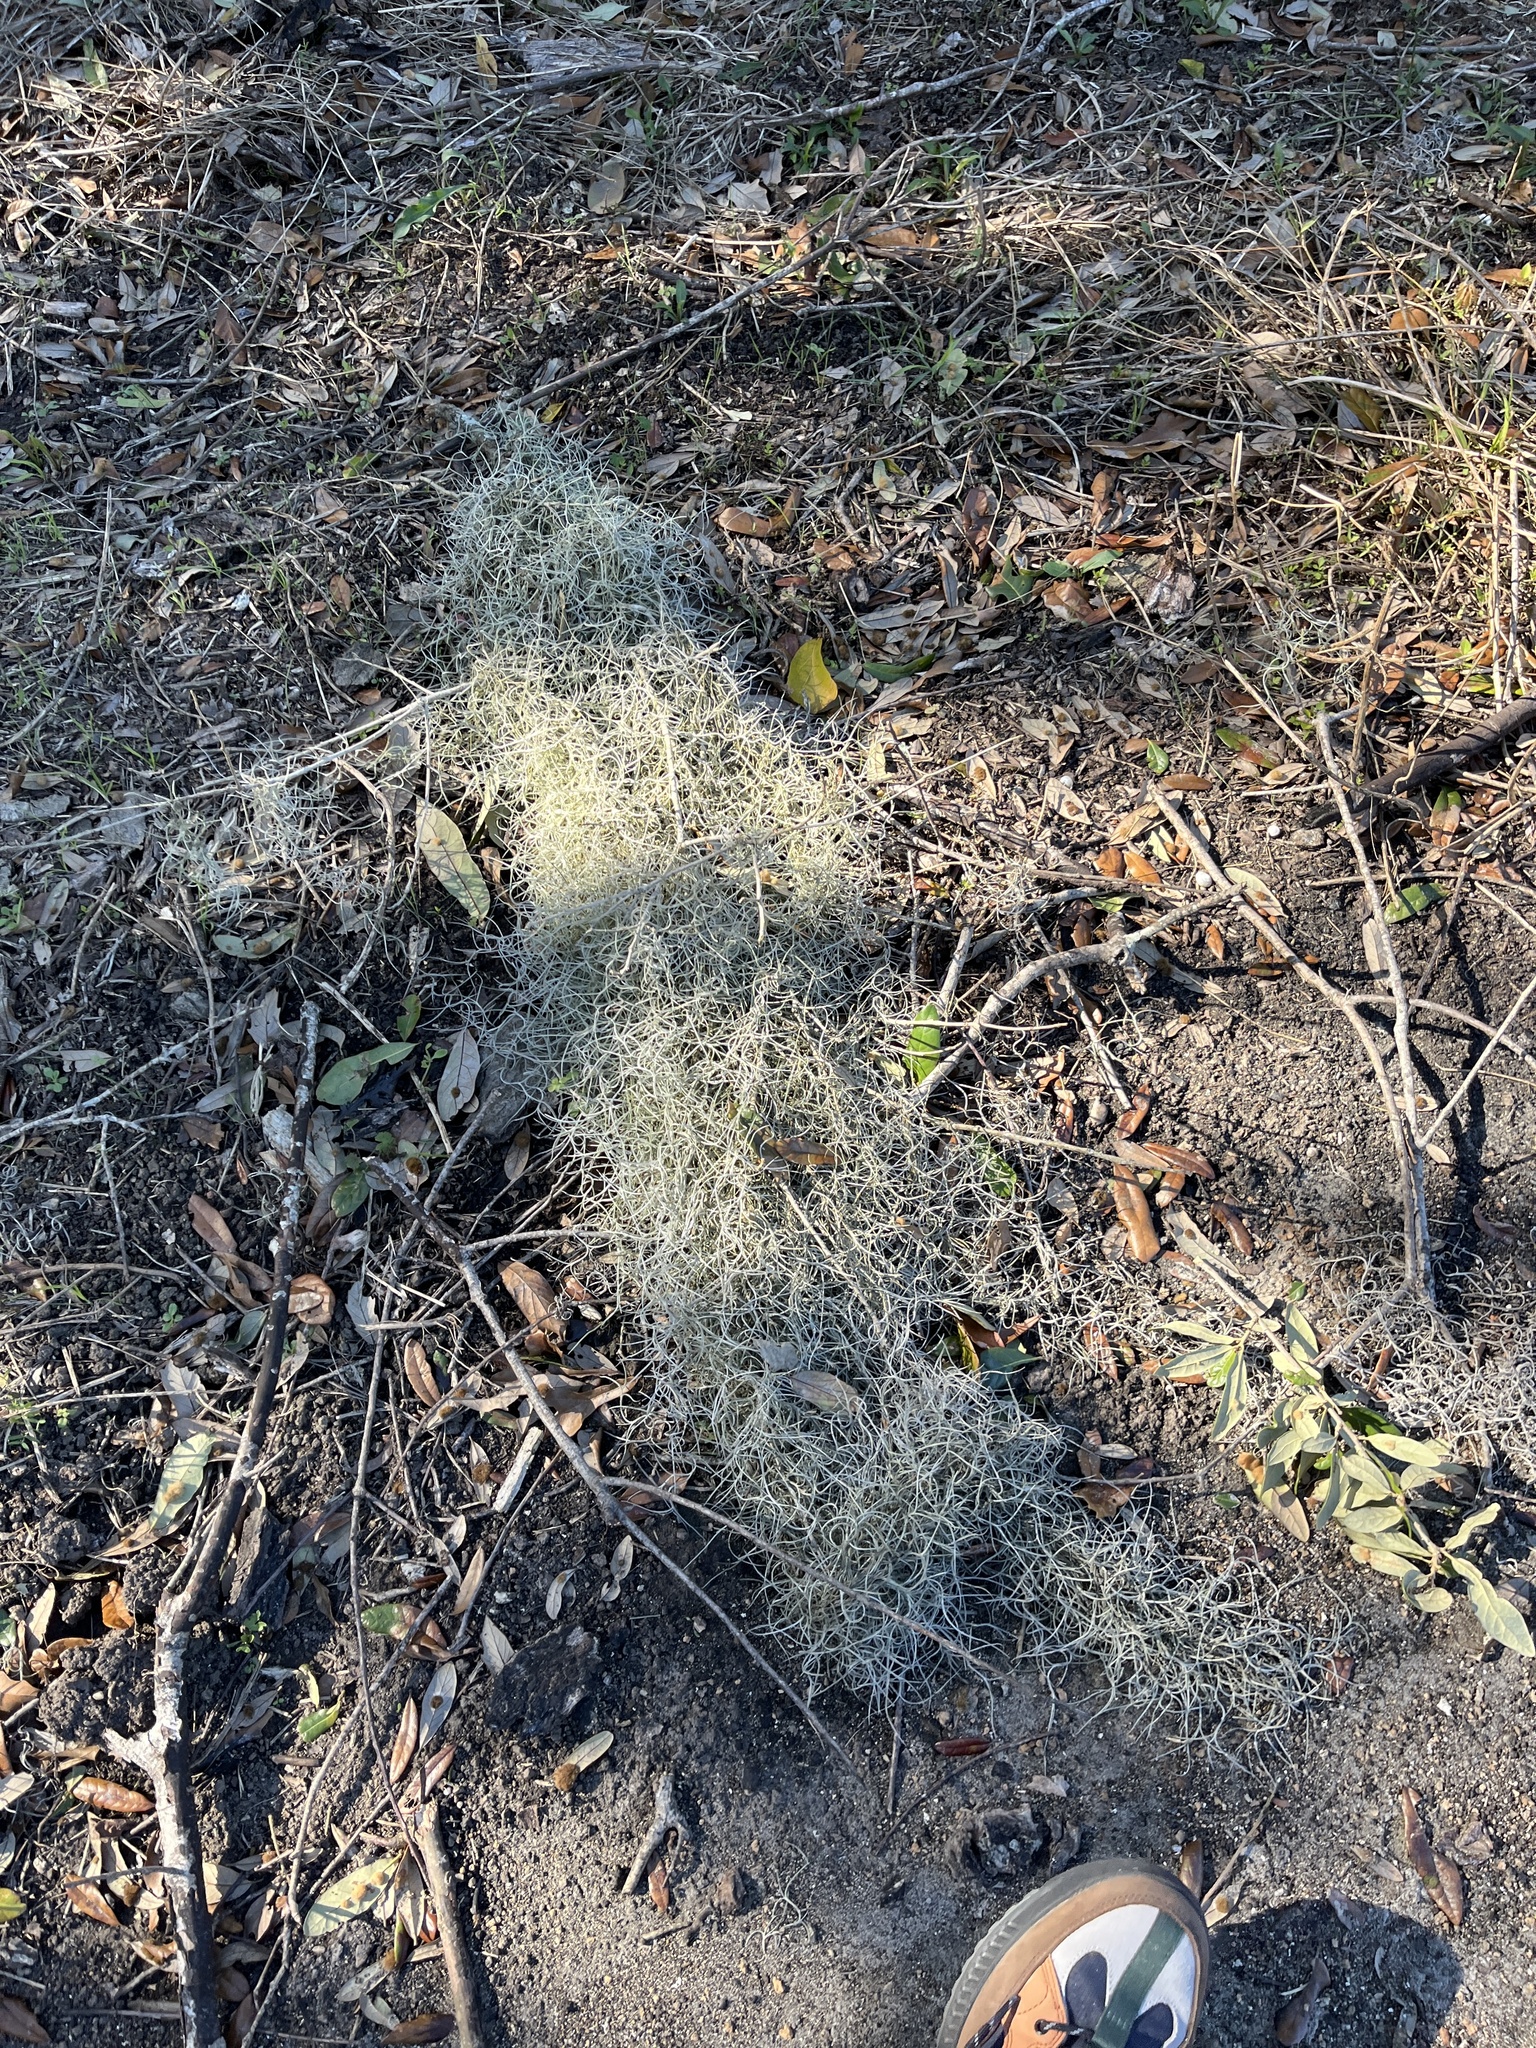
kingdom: Plantae
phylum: Tracheophyta
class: Liliopsida
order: Poales
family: Bromeliaceae
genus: Tillandsia
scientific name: Tillandsia usneoides
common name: Spanish moss
